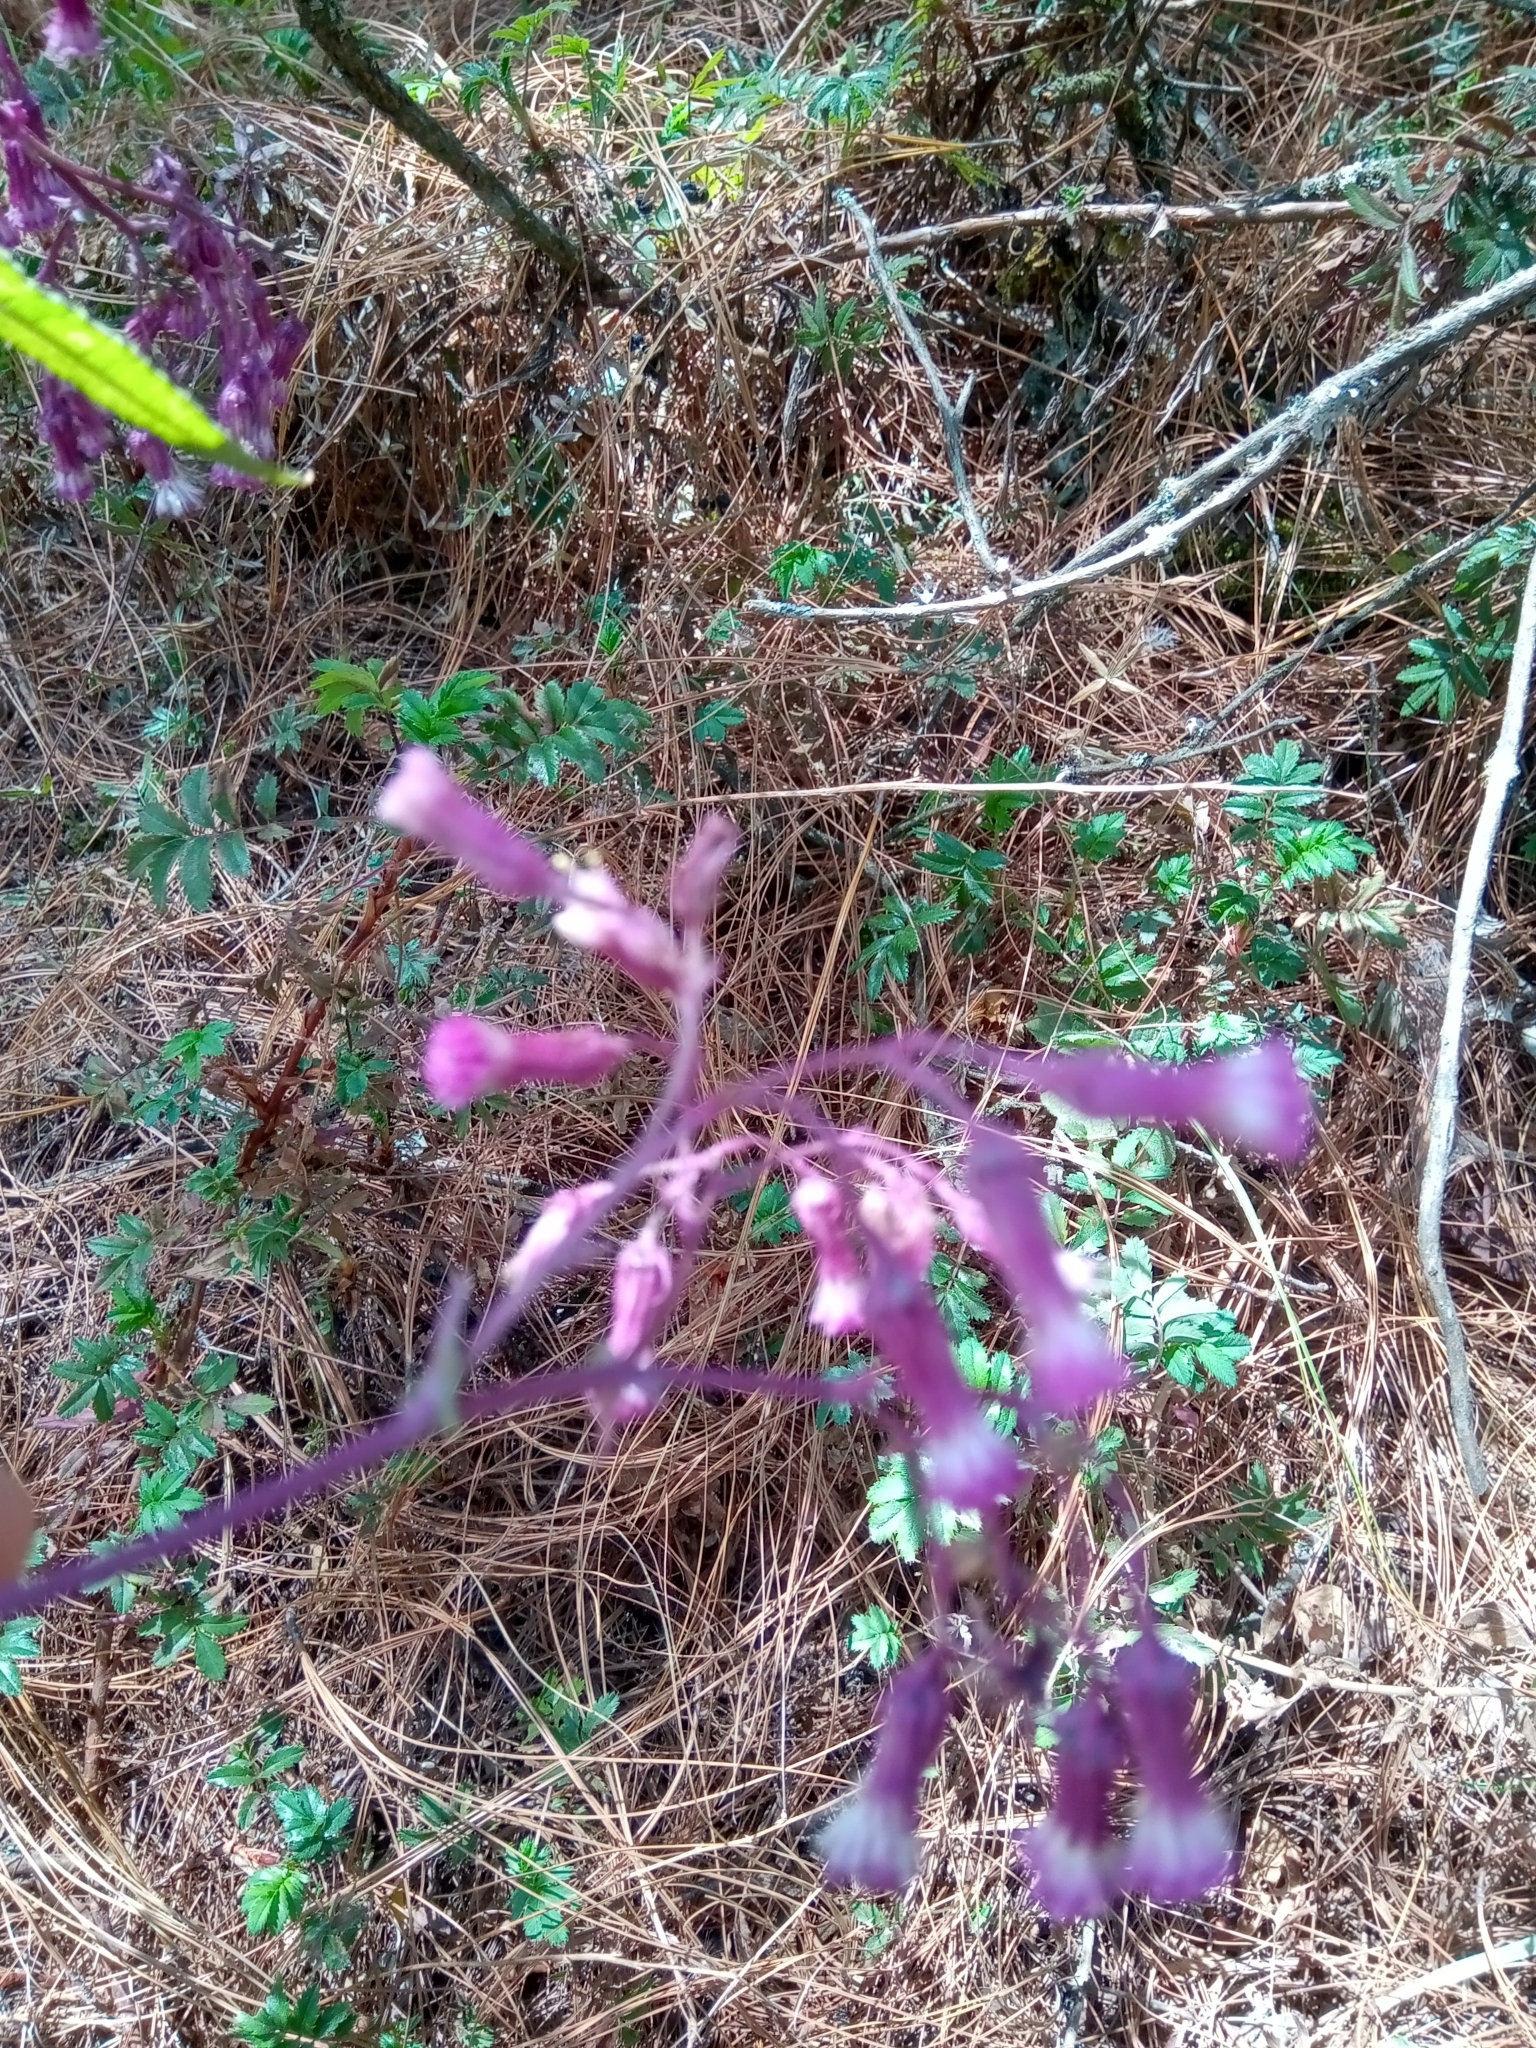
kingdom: Plantae
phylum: Tracheophyta
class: Magnoliopsida
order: Asterales
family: Asteraceae
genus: Senecio
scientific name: Senecio callosus
